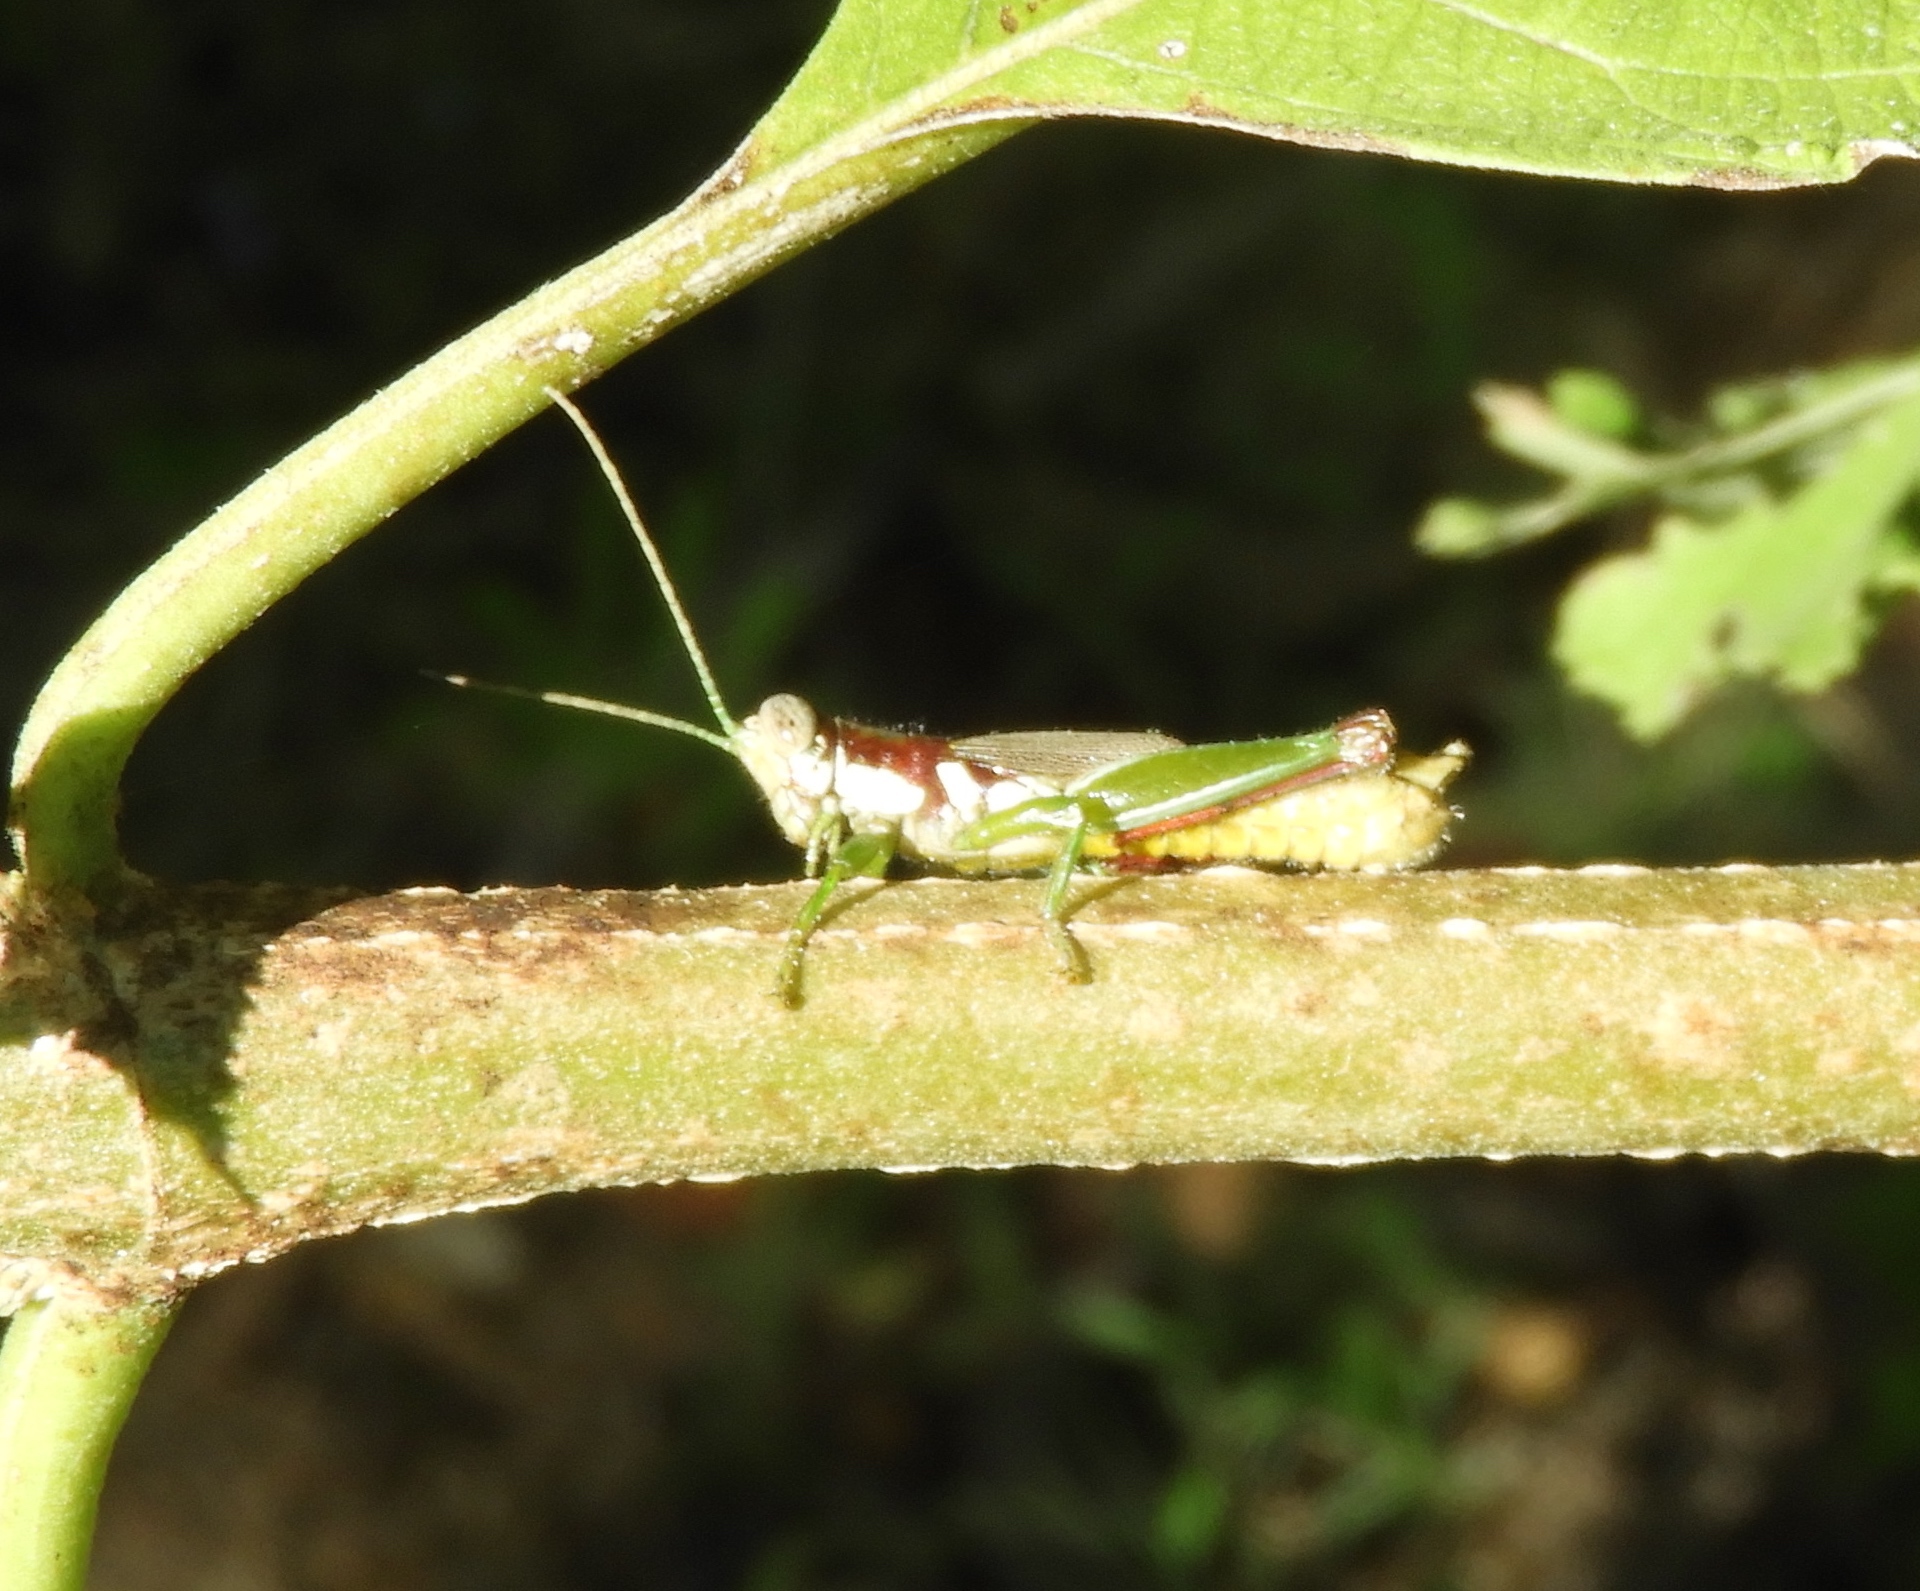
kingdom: Animalia
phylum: Arthropoda
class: Insecta
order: Orthoptera
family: Acrididae
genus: Proctolabus
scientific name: Proctolabus cerciatus
